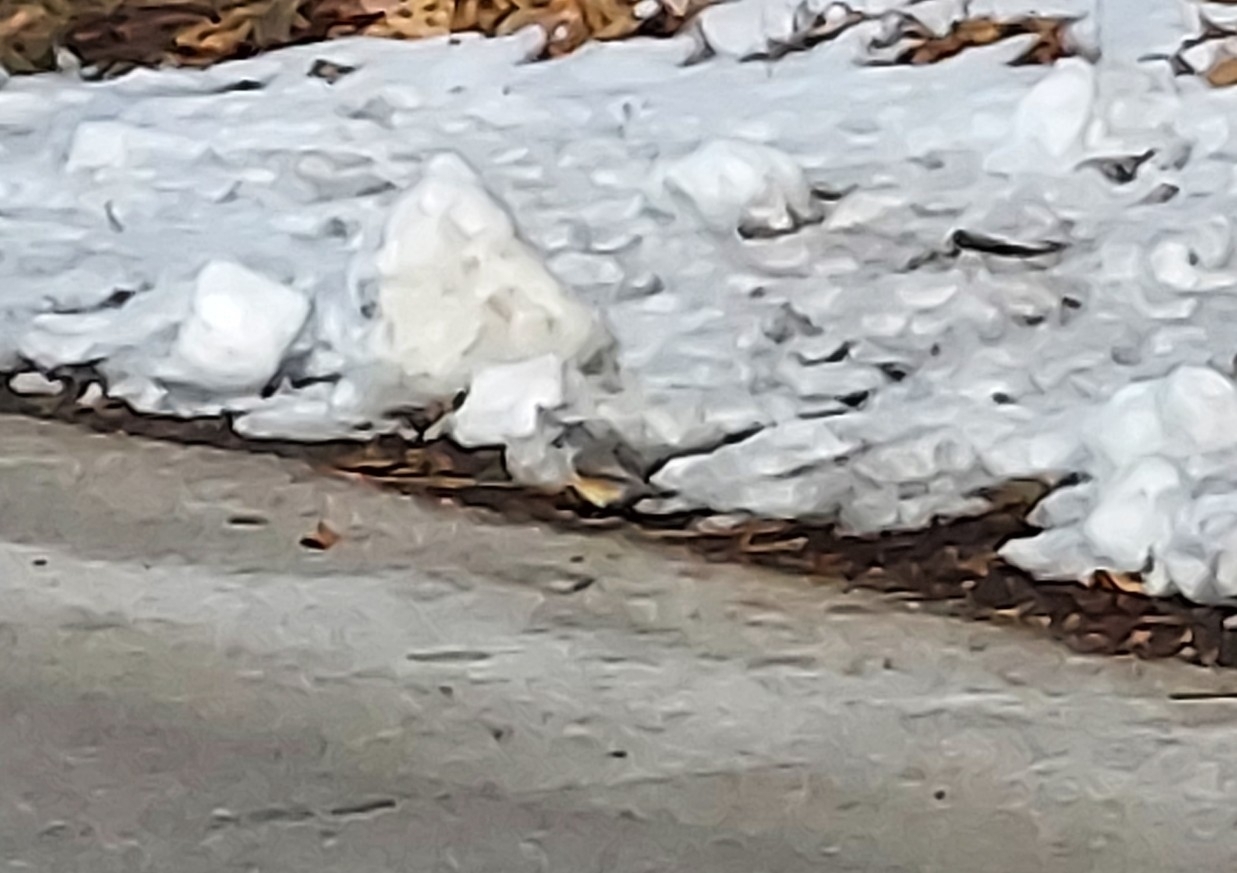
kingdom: Animalia
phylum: Chordata
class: Aves
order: Passeriformes
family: Paridae
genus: Baeolophus
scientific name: Baeolophus bicolor
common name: Tufted titmouse
